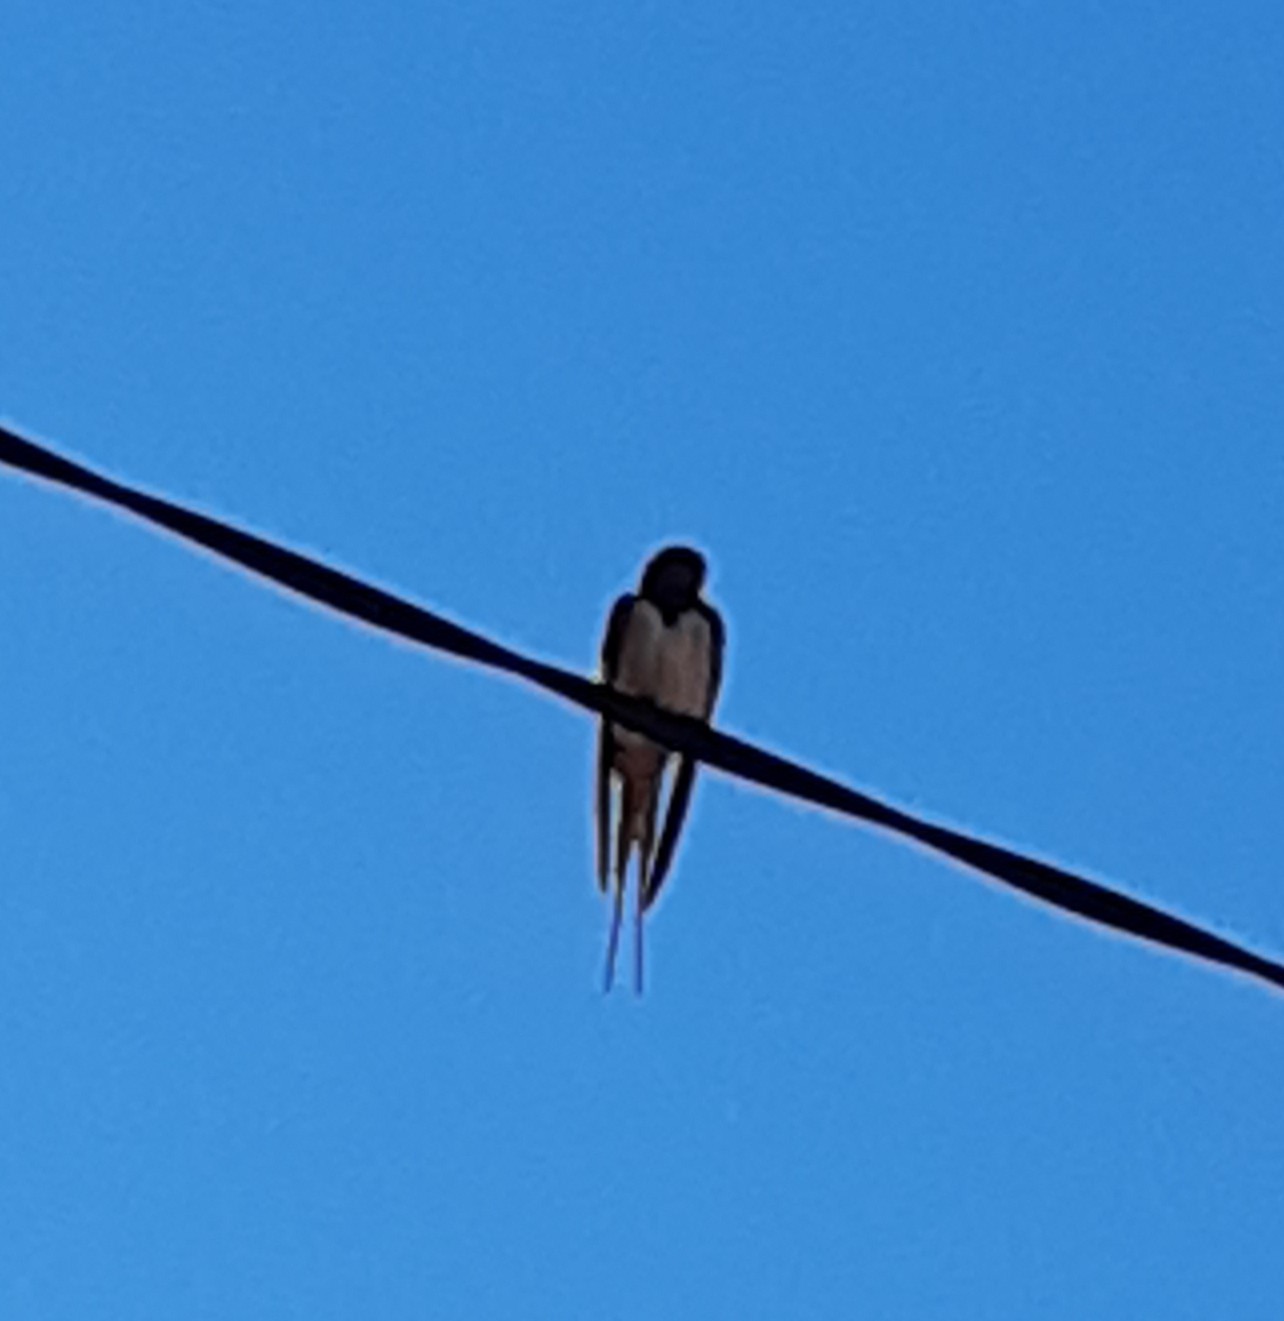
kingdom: Animalia
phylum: Chordata
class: Aves
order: Passeriformes
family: Hirundinidae
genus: Hirundo
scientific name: Hirundo rustica
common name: Barn swallow
